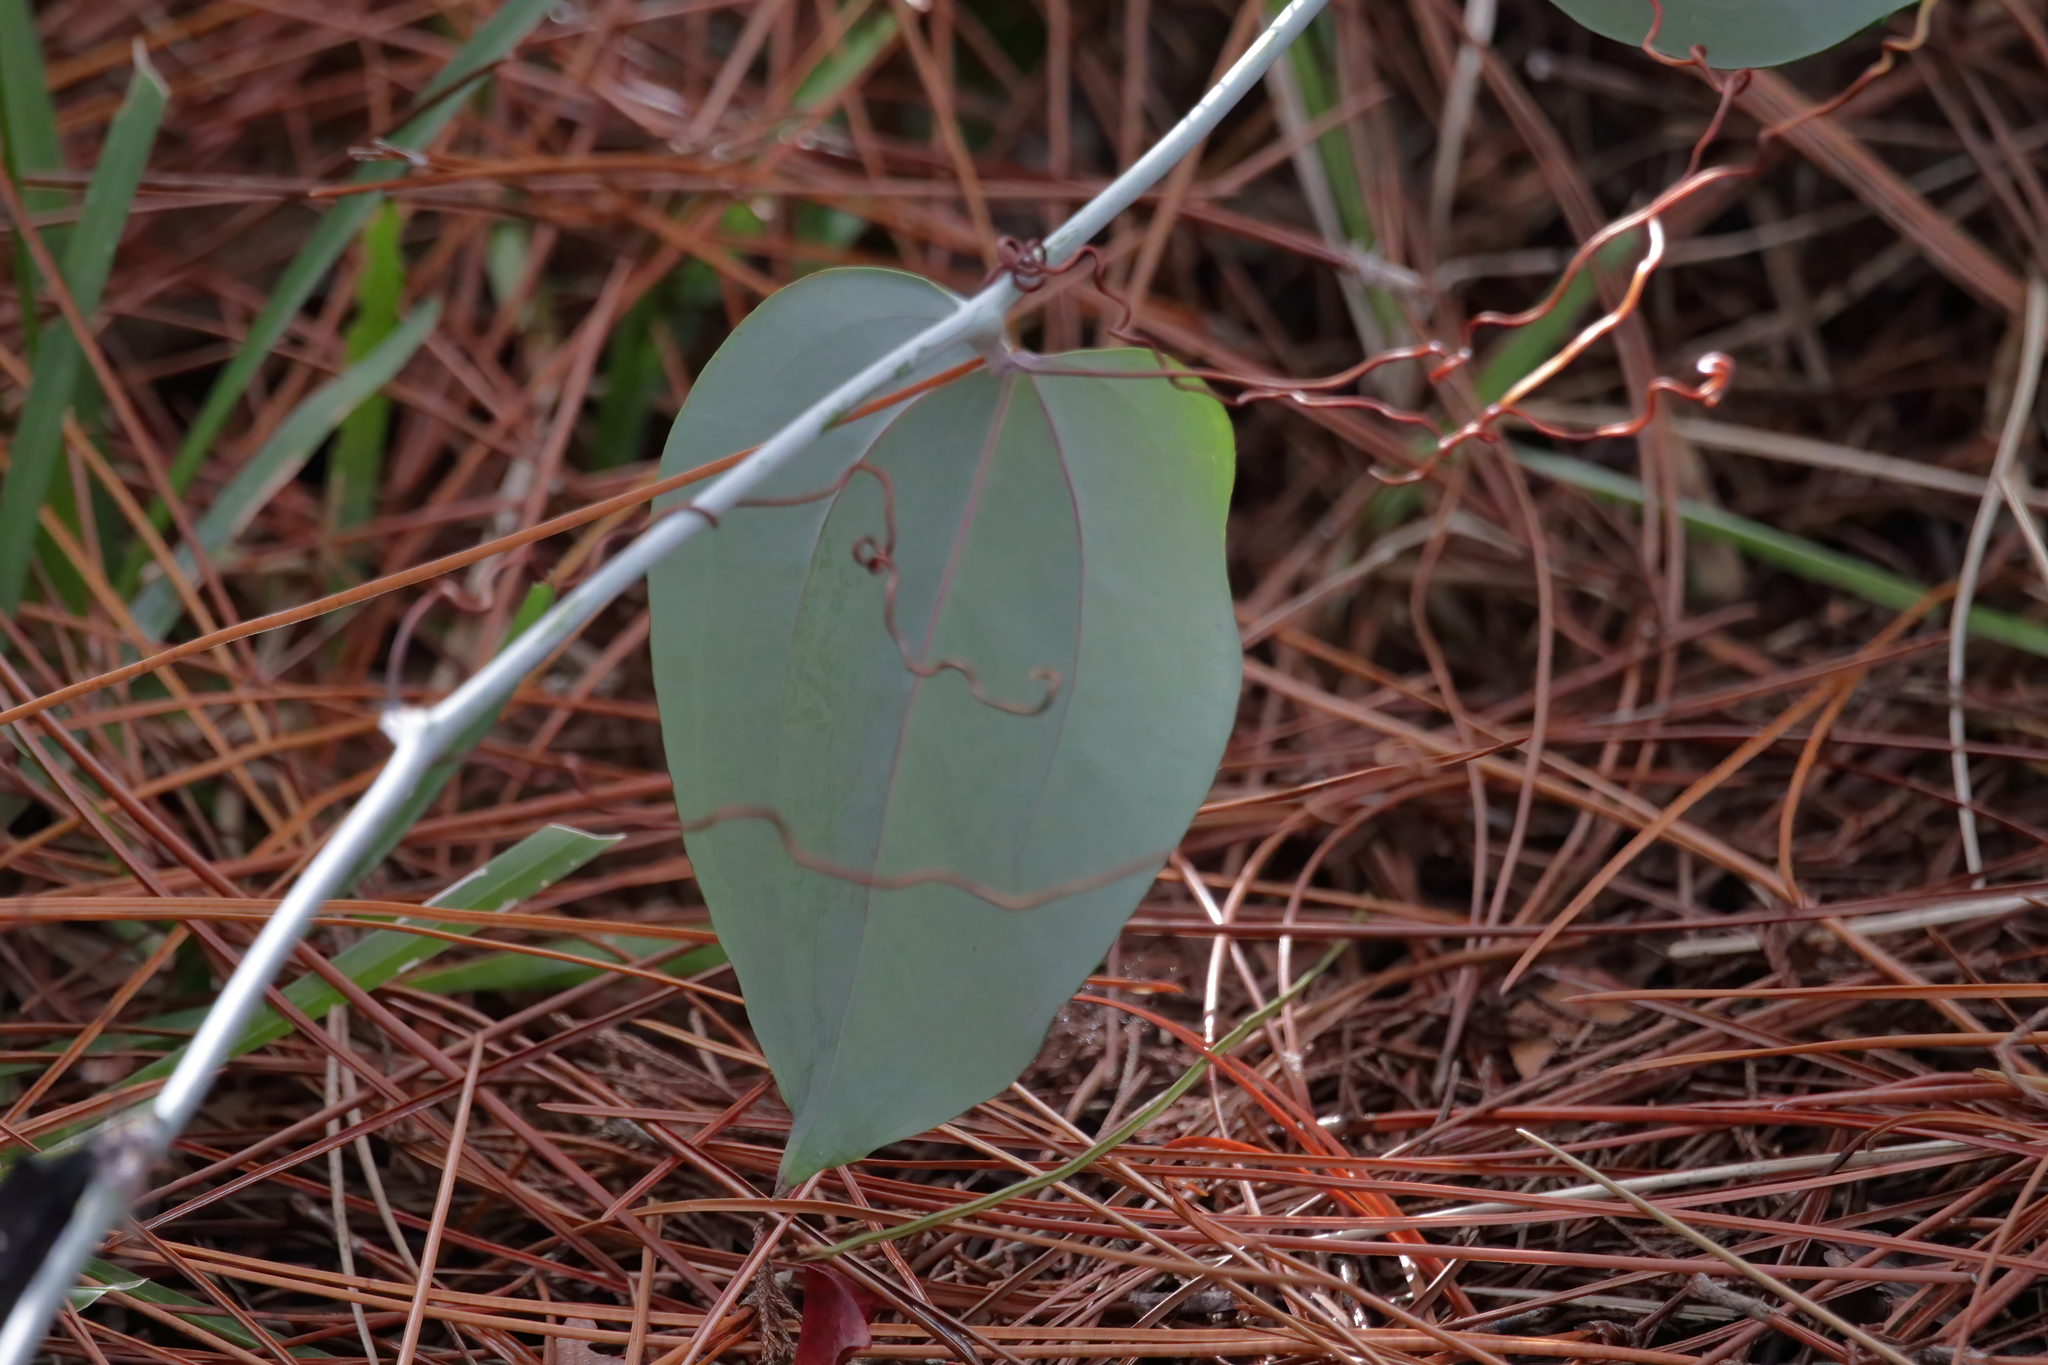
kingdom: Plantae
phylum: Tracheophyta
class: Liliopsida
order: Liliales
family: Smilacaceae
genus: Smilax
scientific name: Smilax glauca
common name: Cat greenbrier
